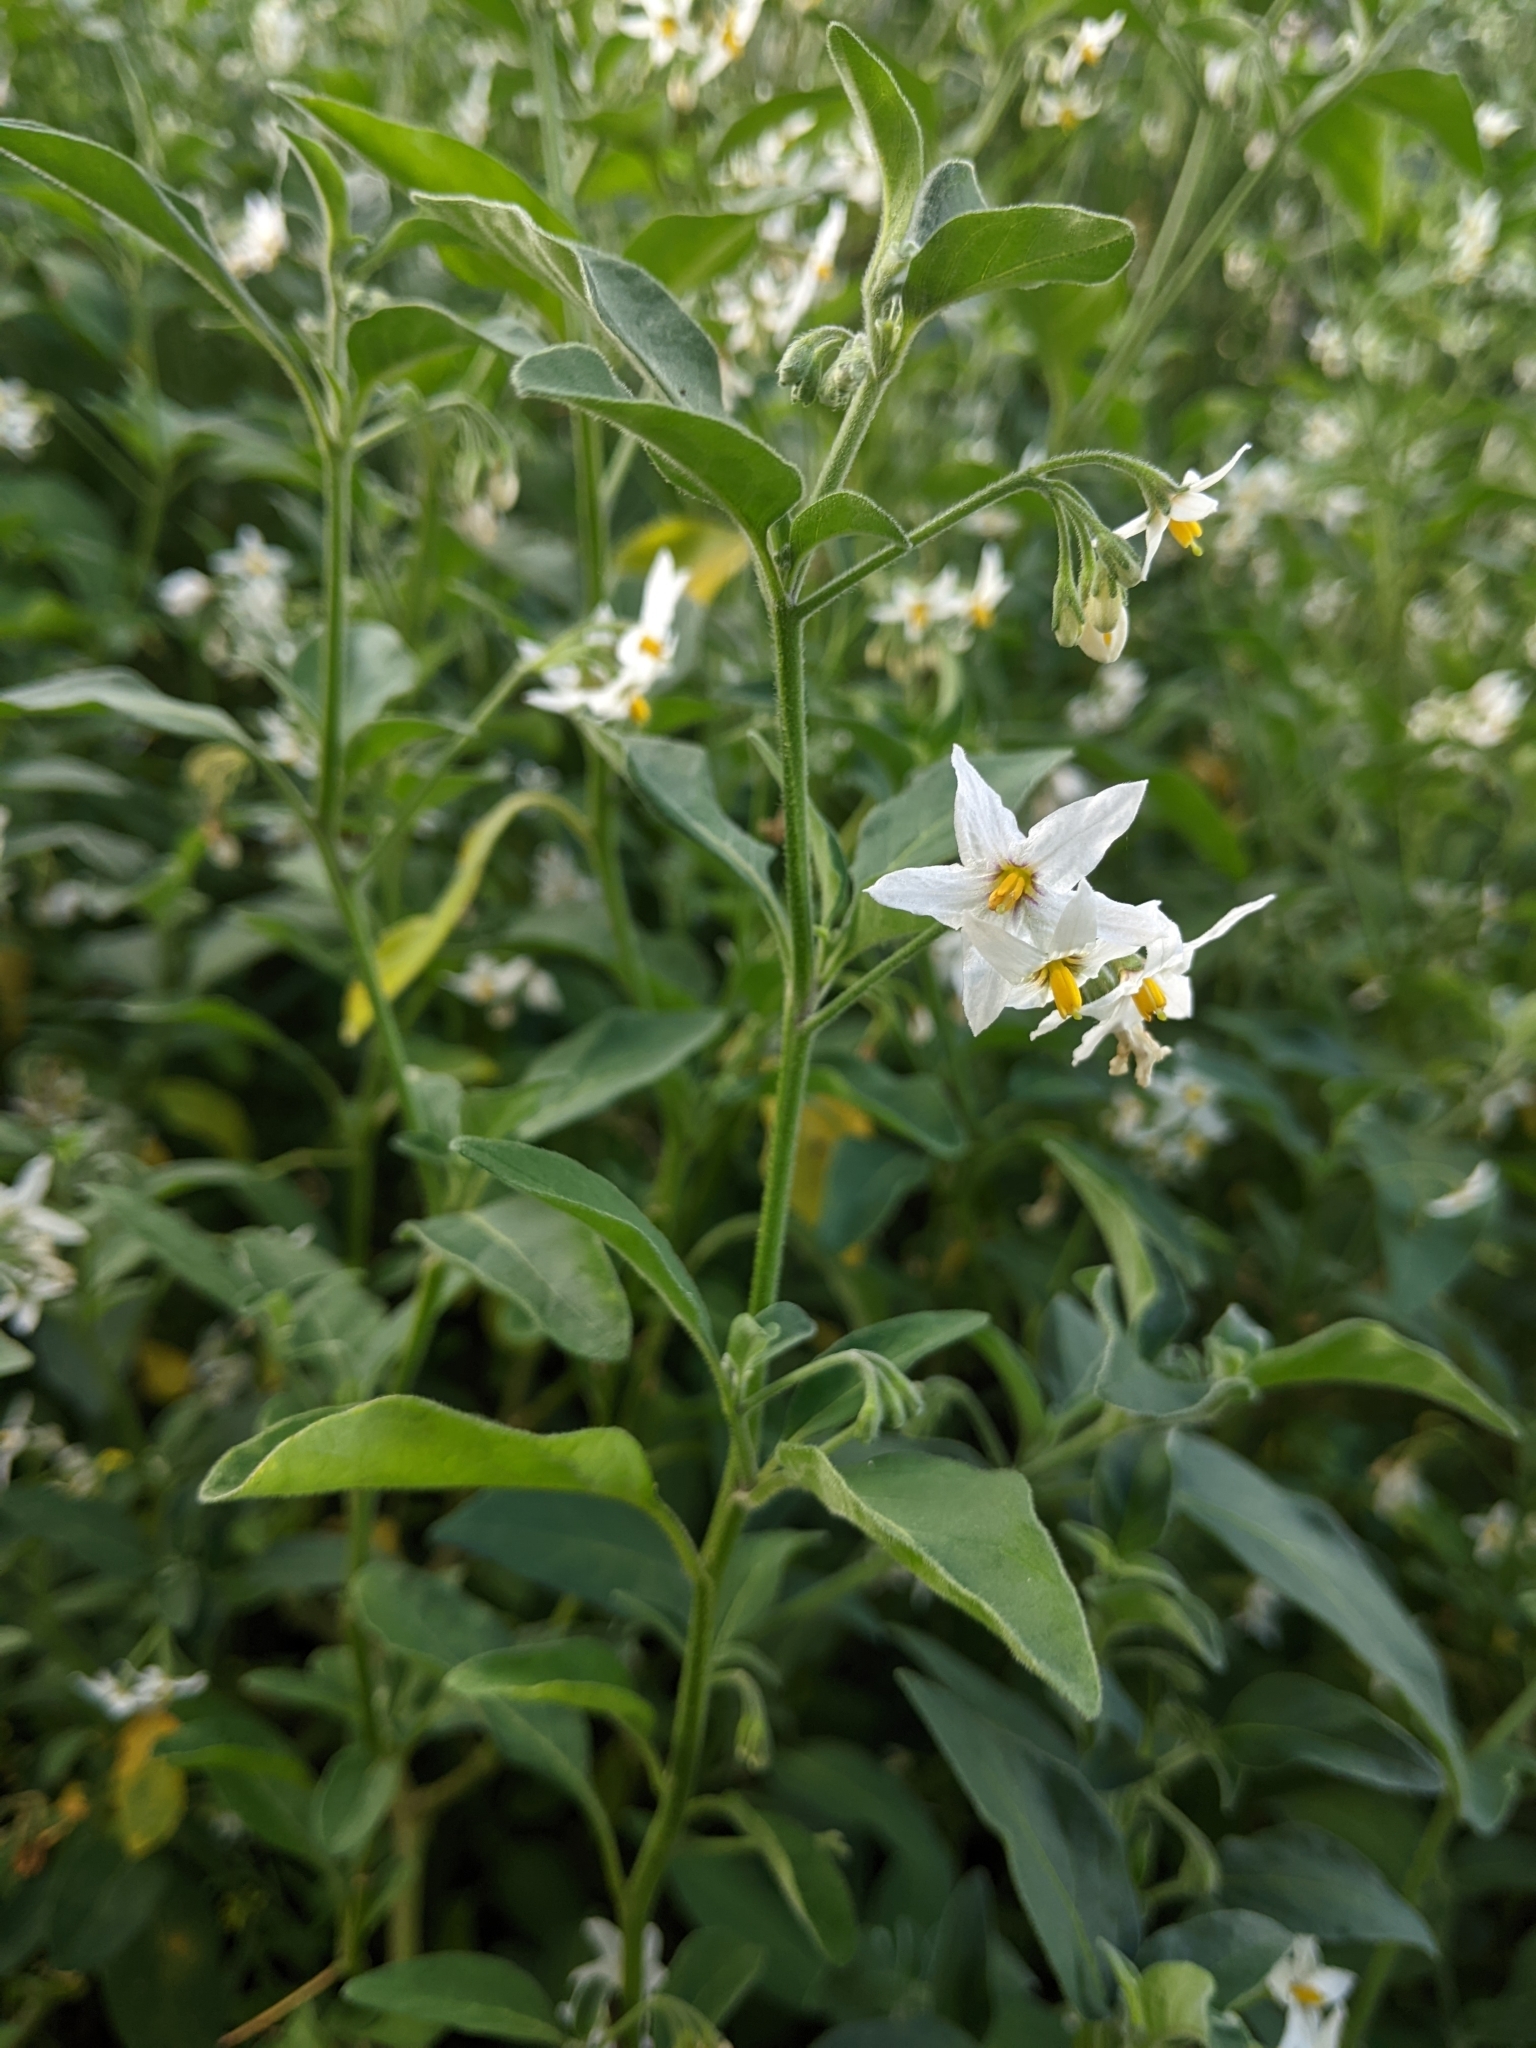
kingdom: Plantae
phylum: Tracheophyta
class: Magnoliopsida
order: Solanales
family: Solanaceae
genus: Solanum
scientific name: Solanum chenopodioides
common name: Tall nightshade
